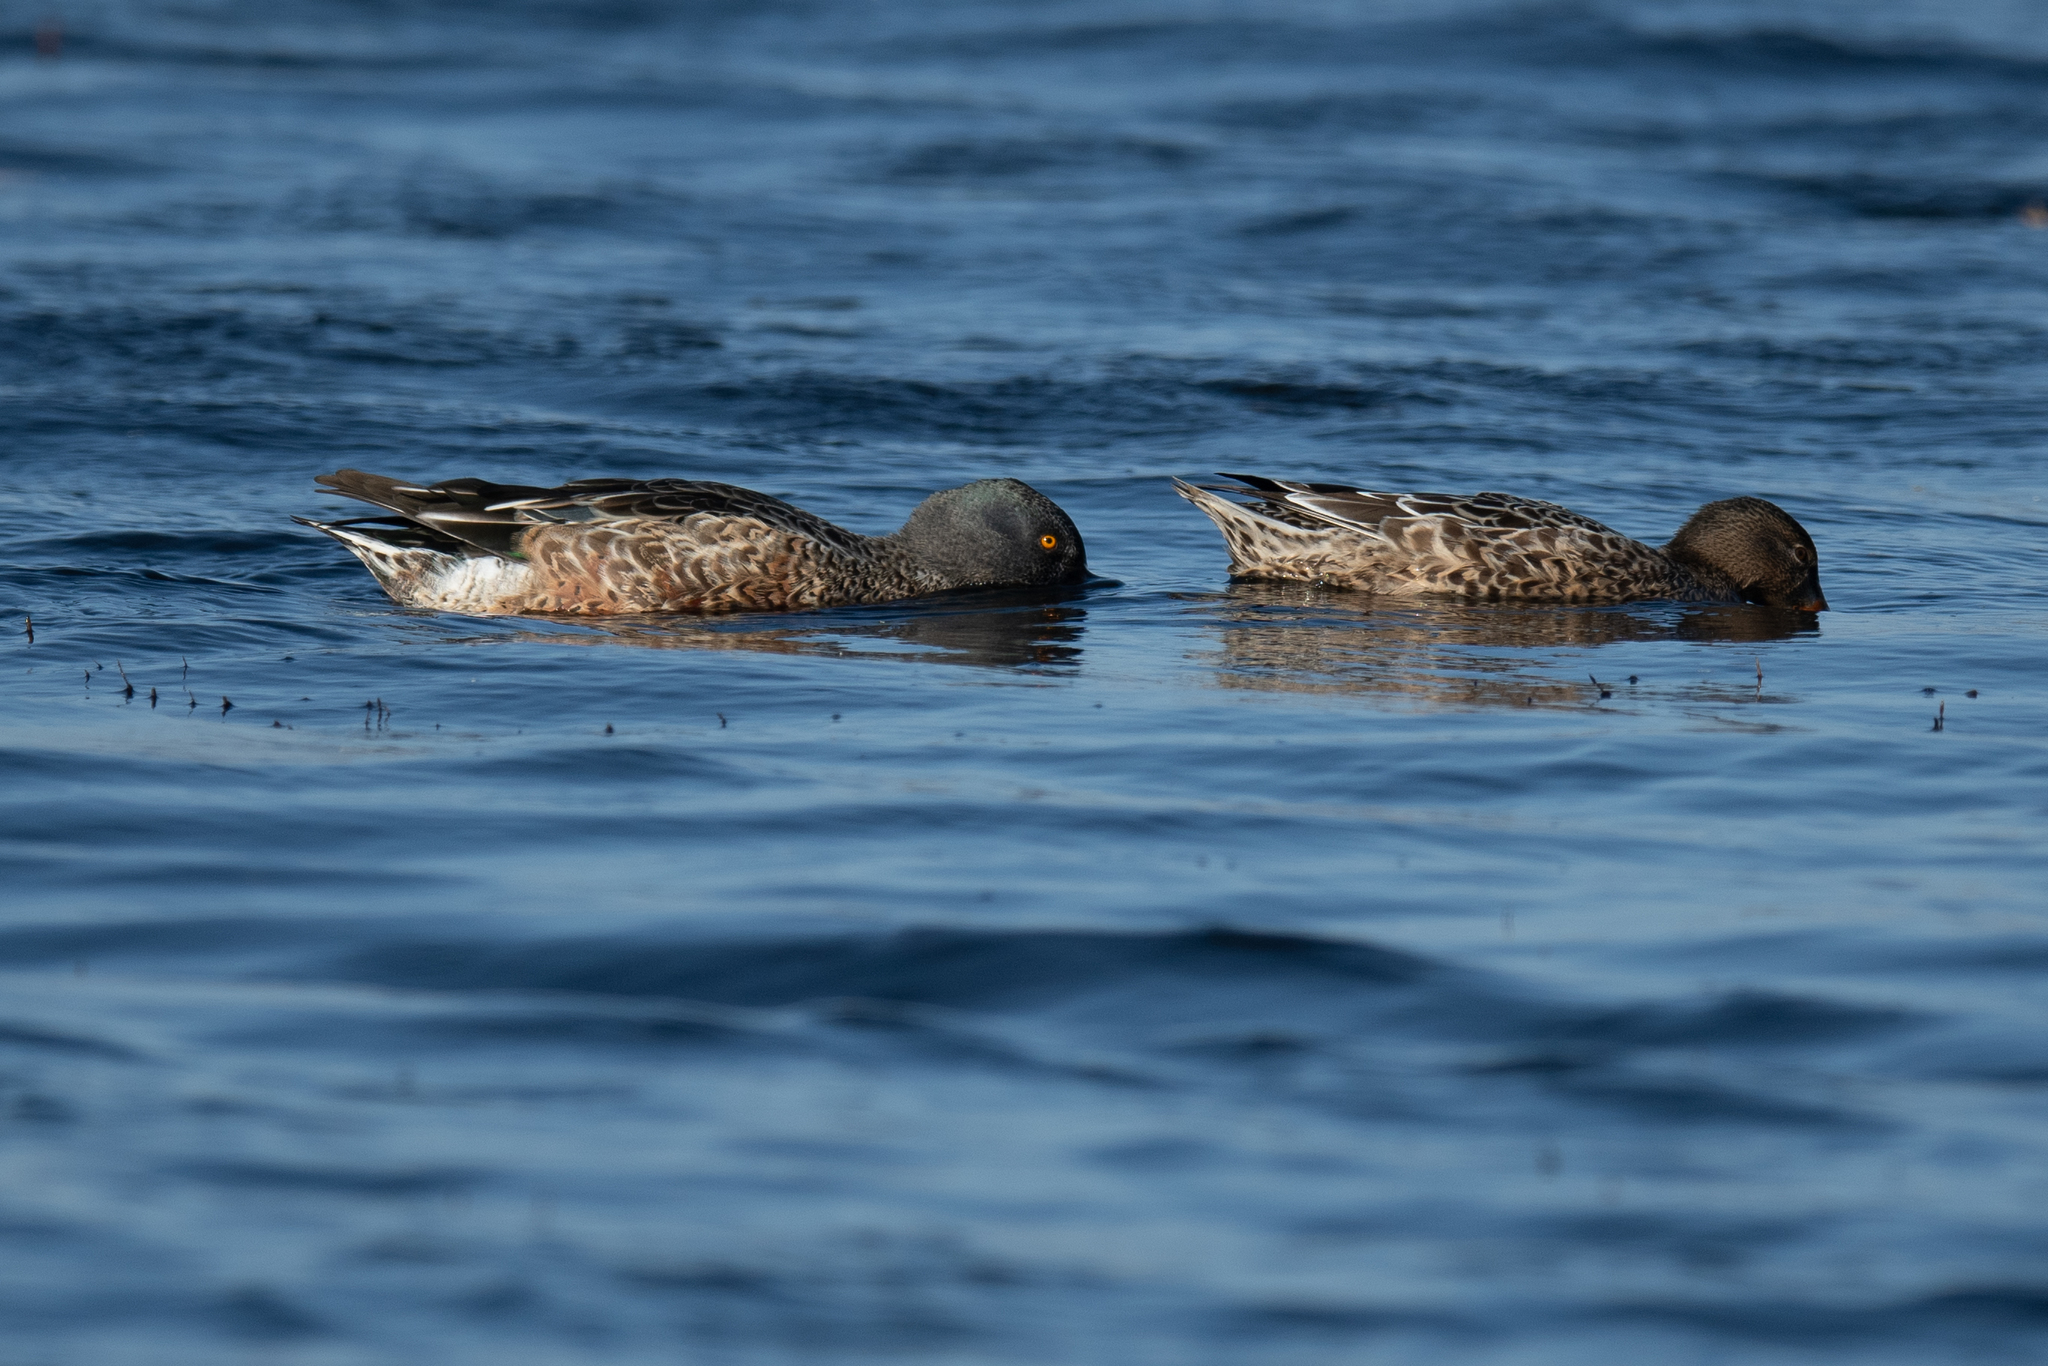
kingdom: Animalia
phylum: Chordata
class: Aves
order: Anseriformes
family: Anatidae
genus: Spatula
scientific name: Spatula clypeata
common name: Northern shoveler
